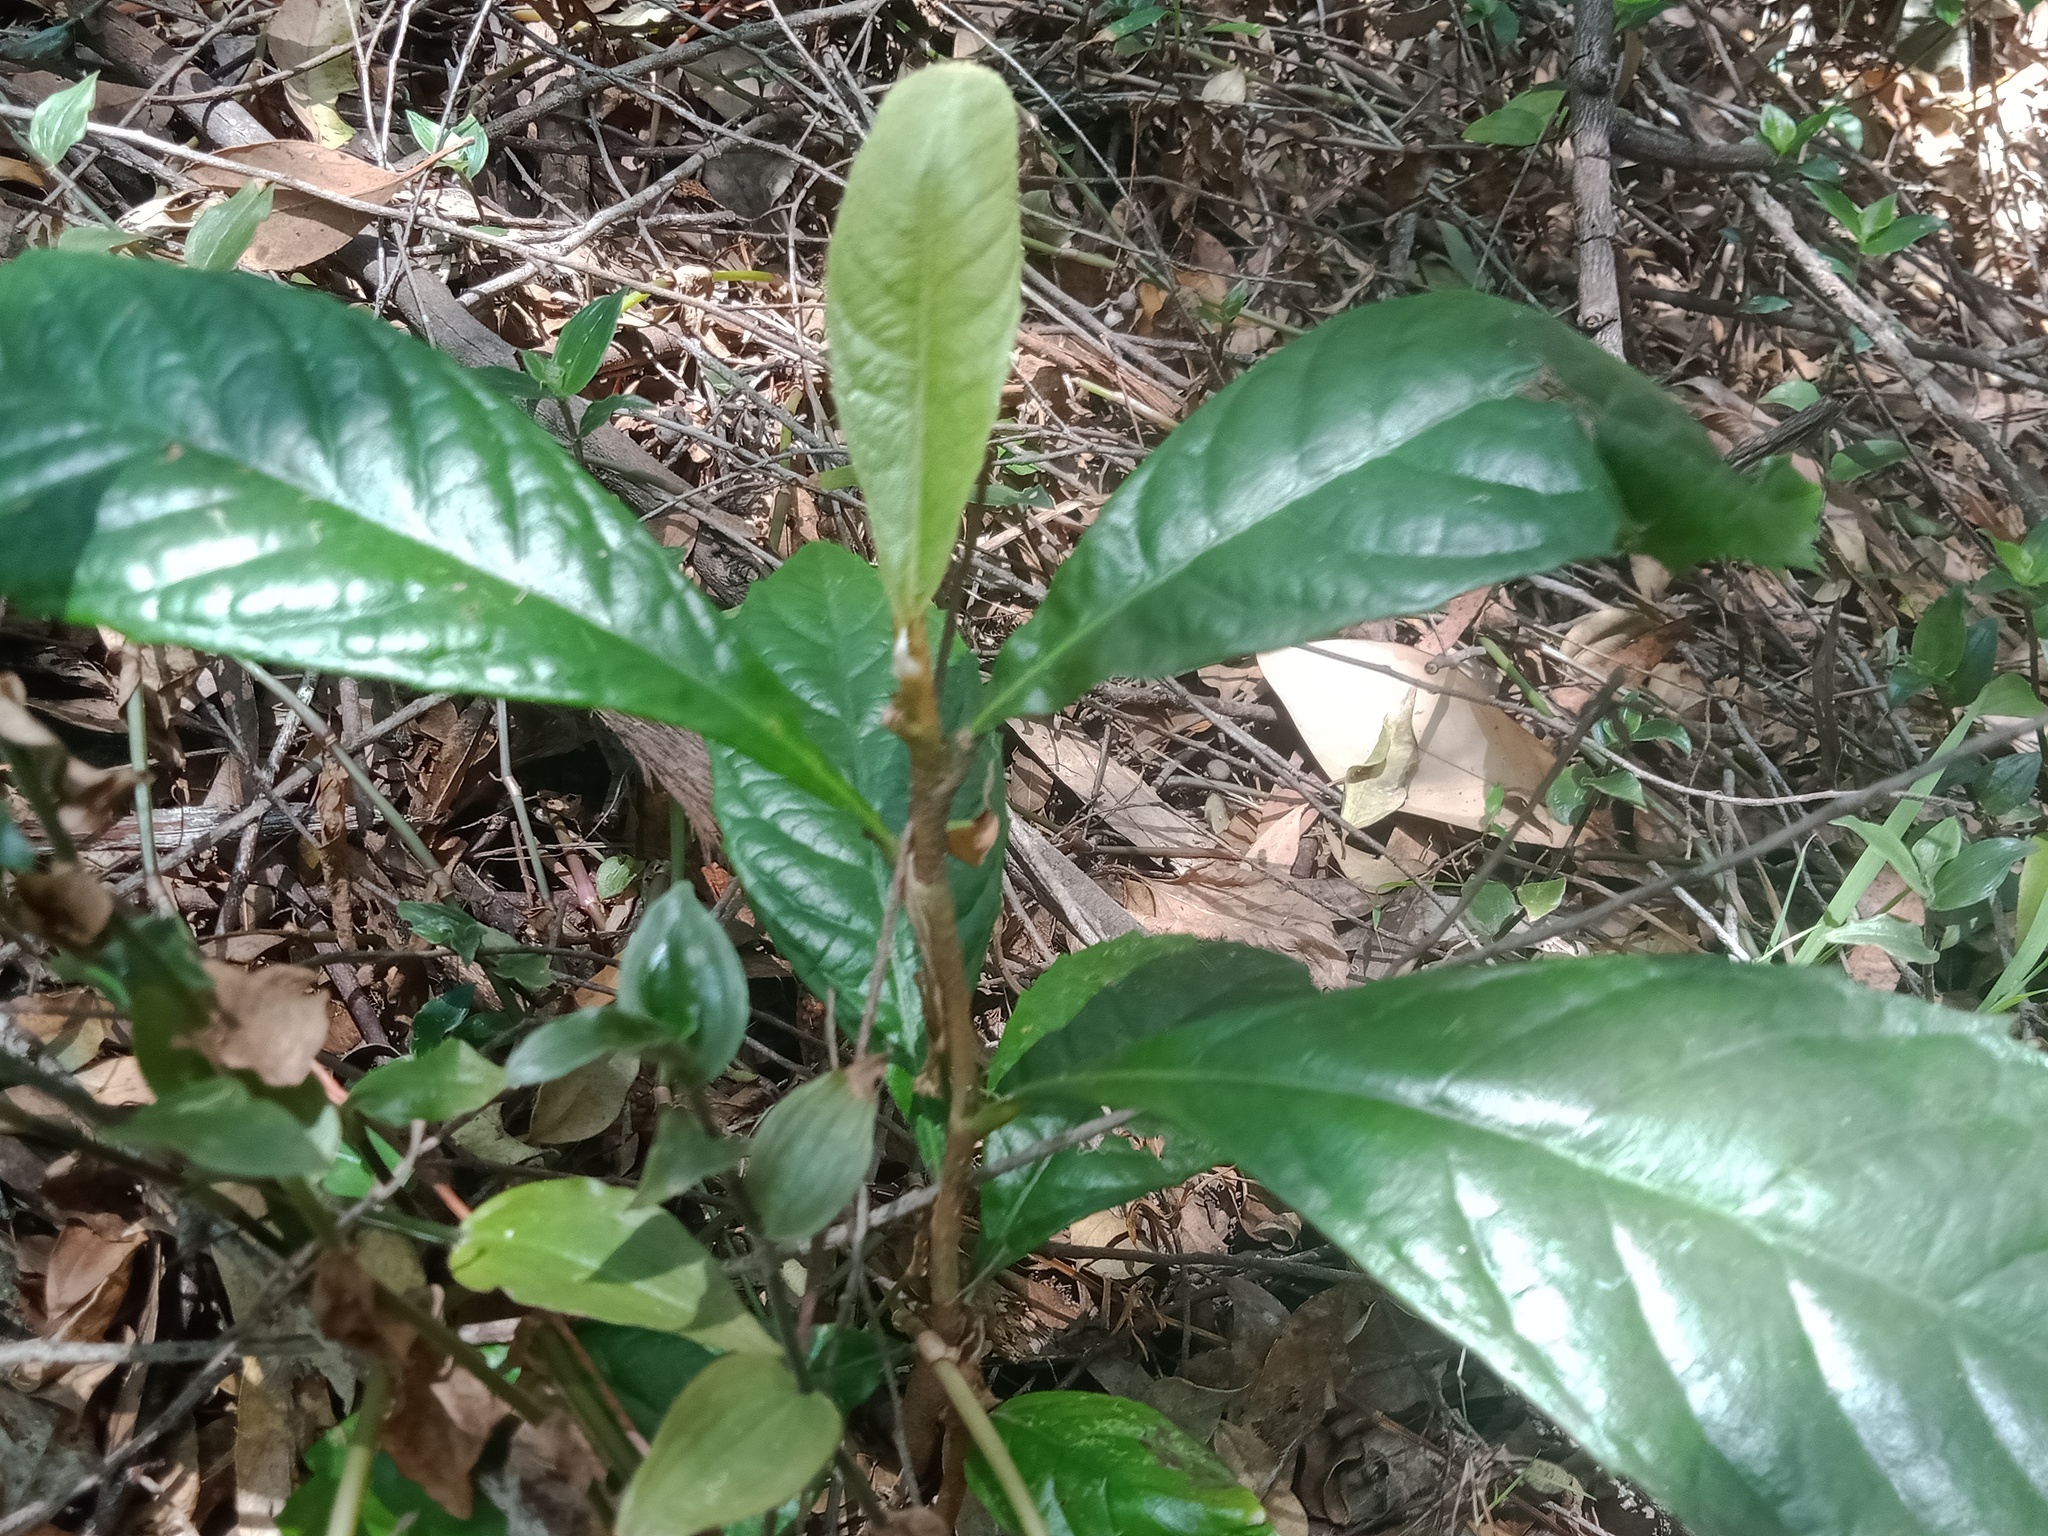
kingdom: Plantae
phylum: Tracheophyta
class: Magnoliopsida
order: Rosales
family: Rosaceae
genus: Rhaphiolepis
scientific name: Rhaphiolepis bibas
